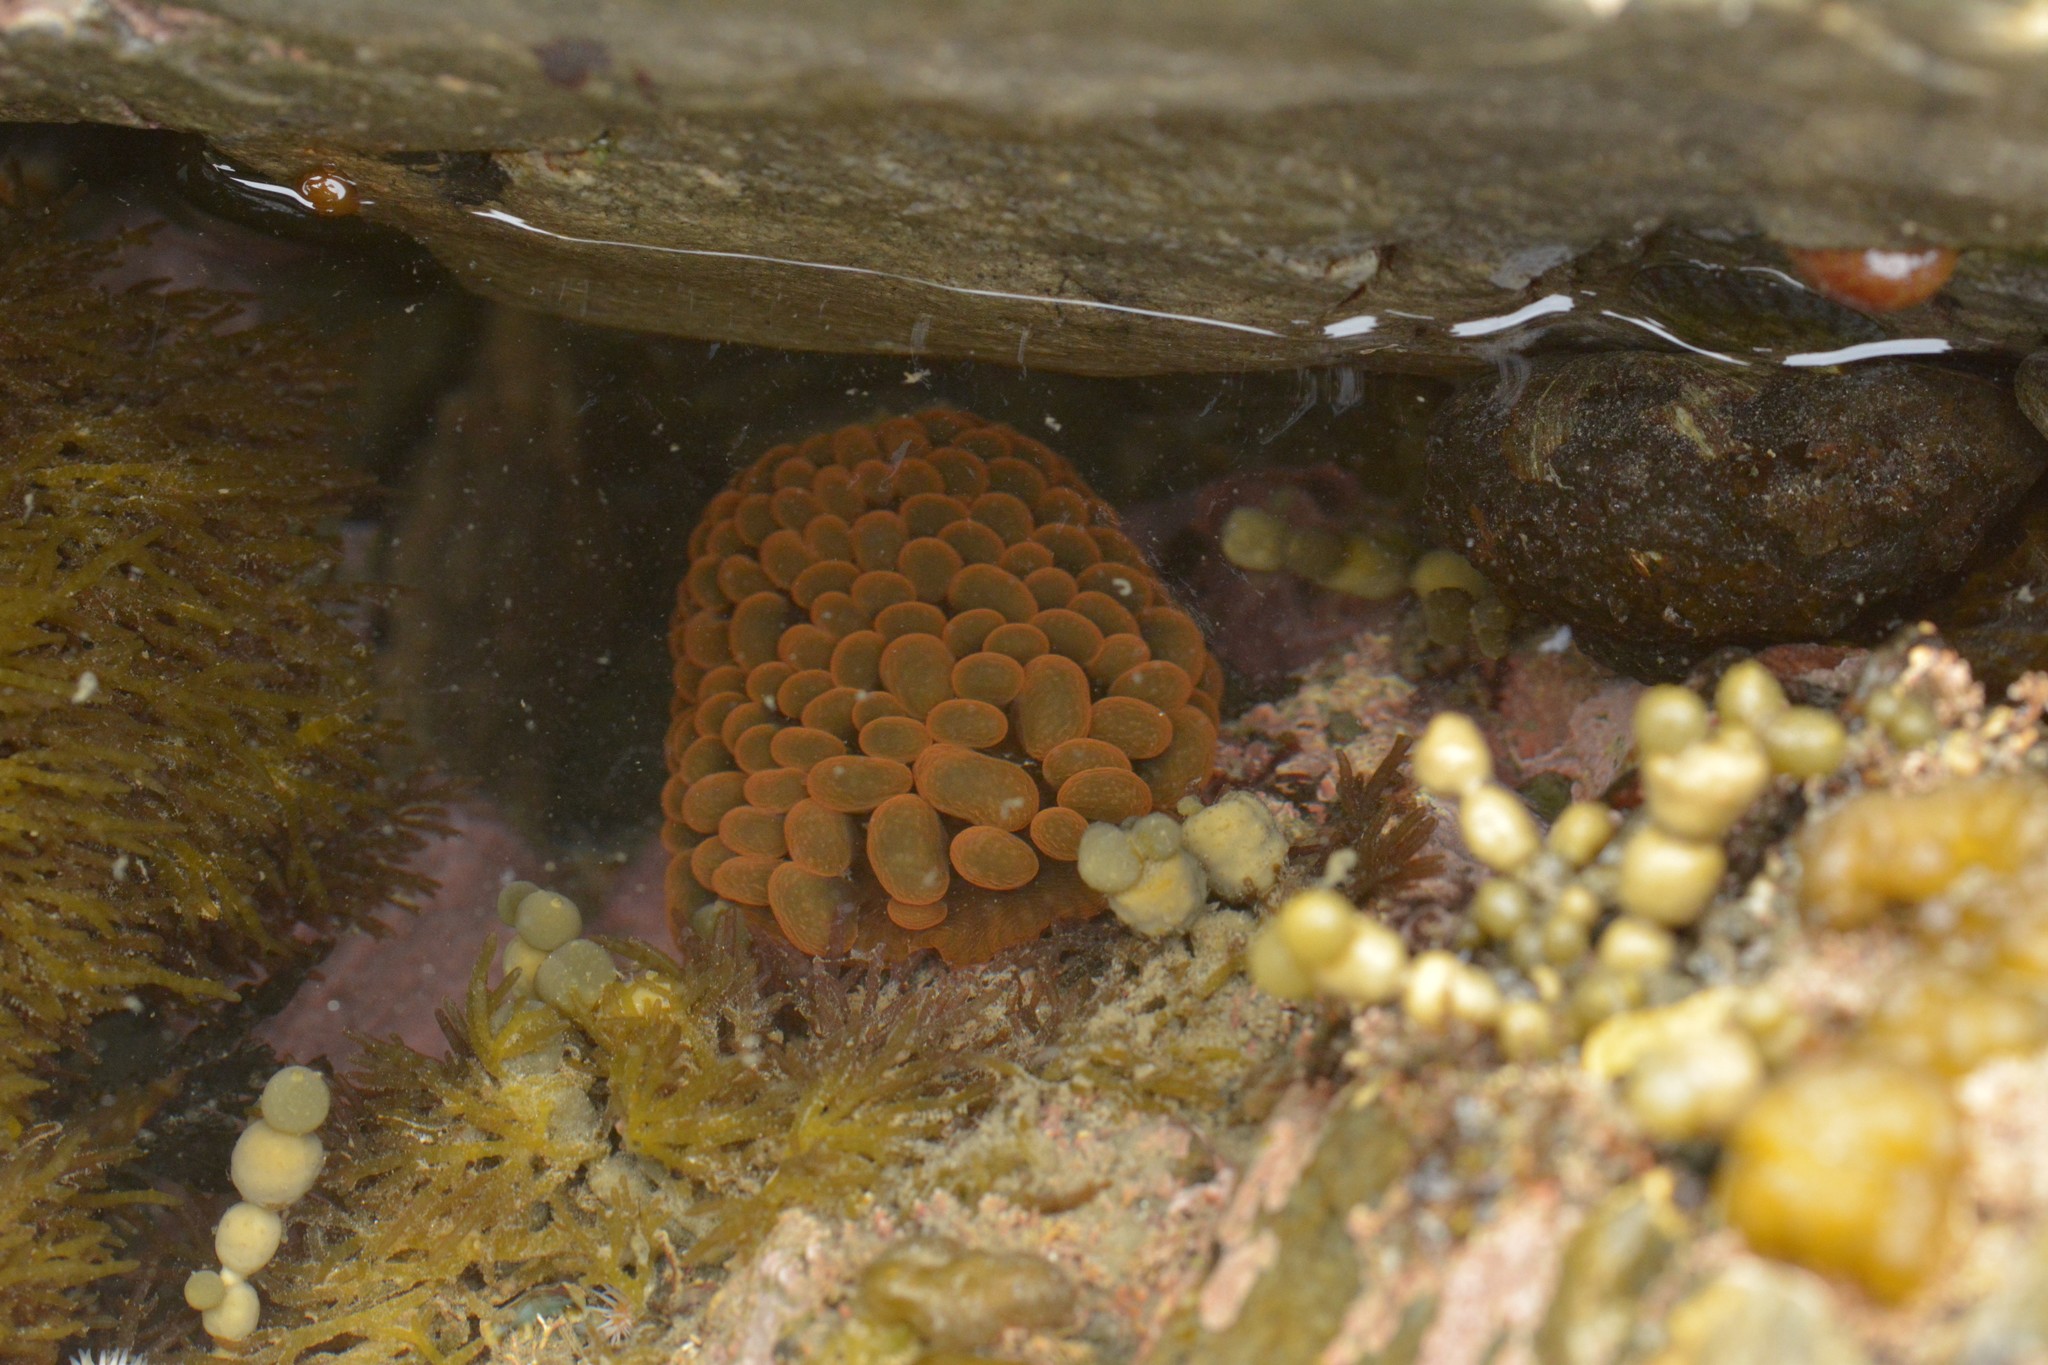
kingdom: Animalia
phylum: Cnidaria
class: Anthozoa
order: Actiniaria
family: Actiniidae
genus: Phlyctenactis
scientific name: Phlyctenactis tuberculosa
